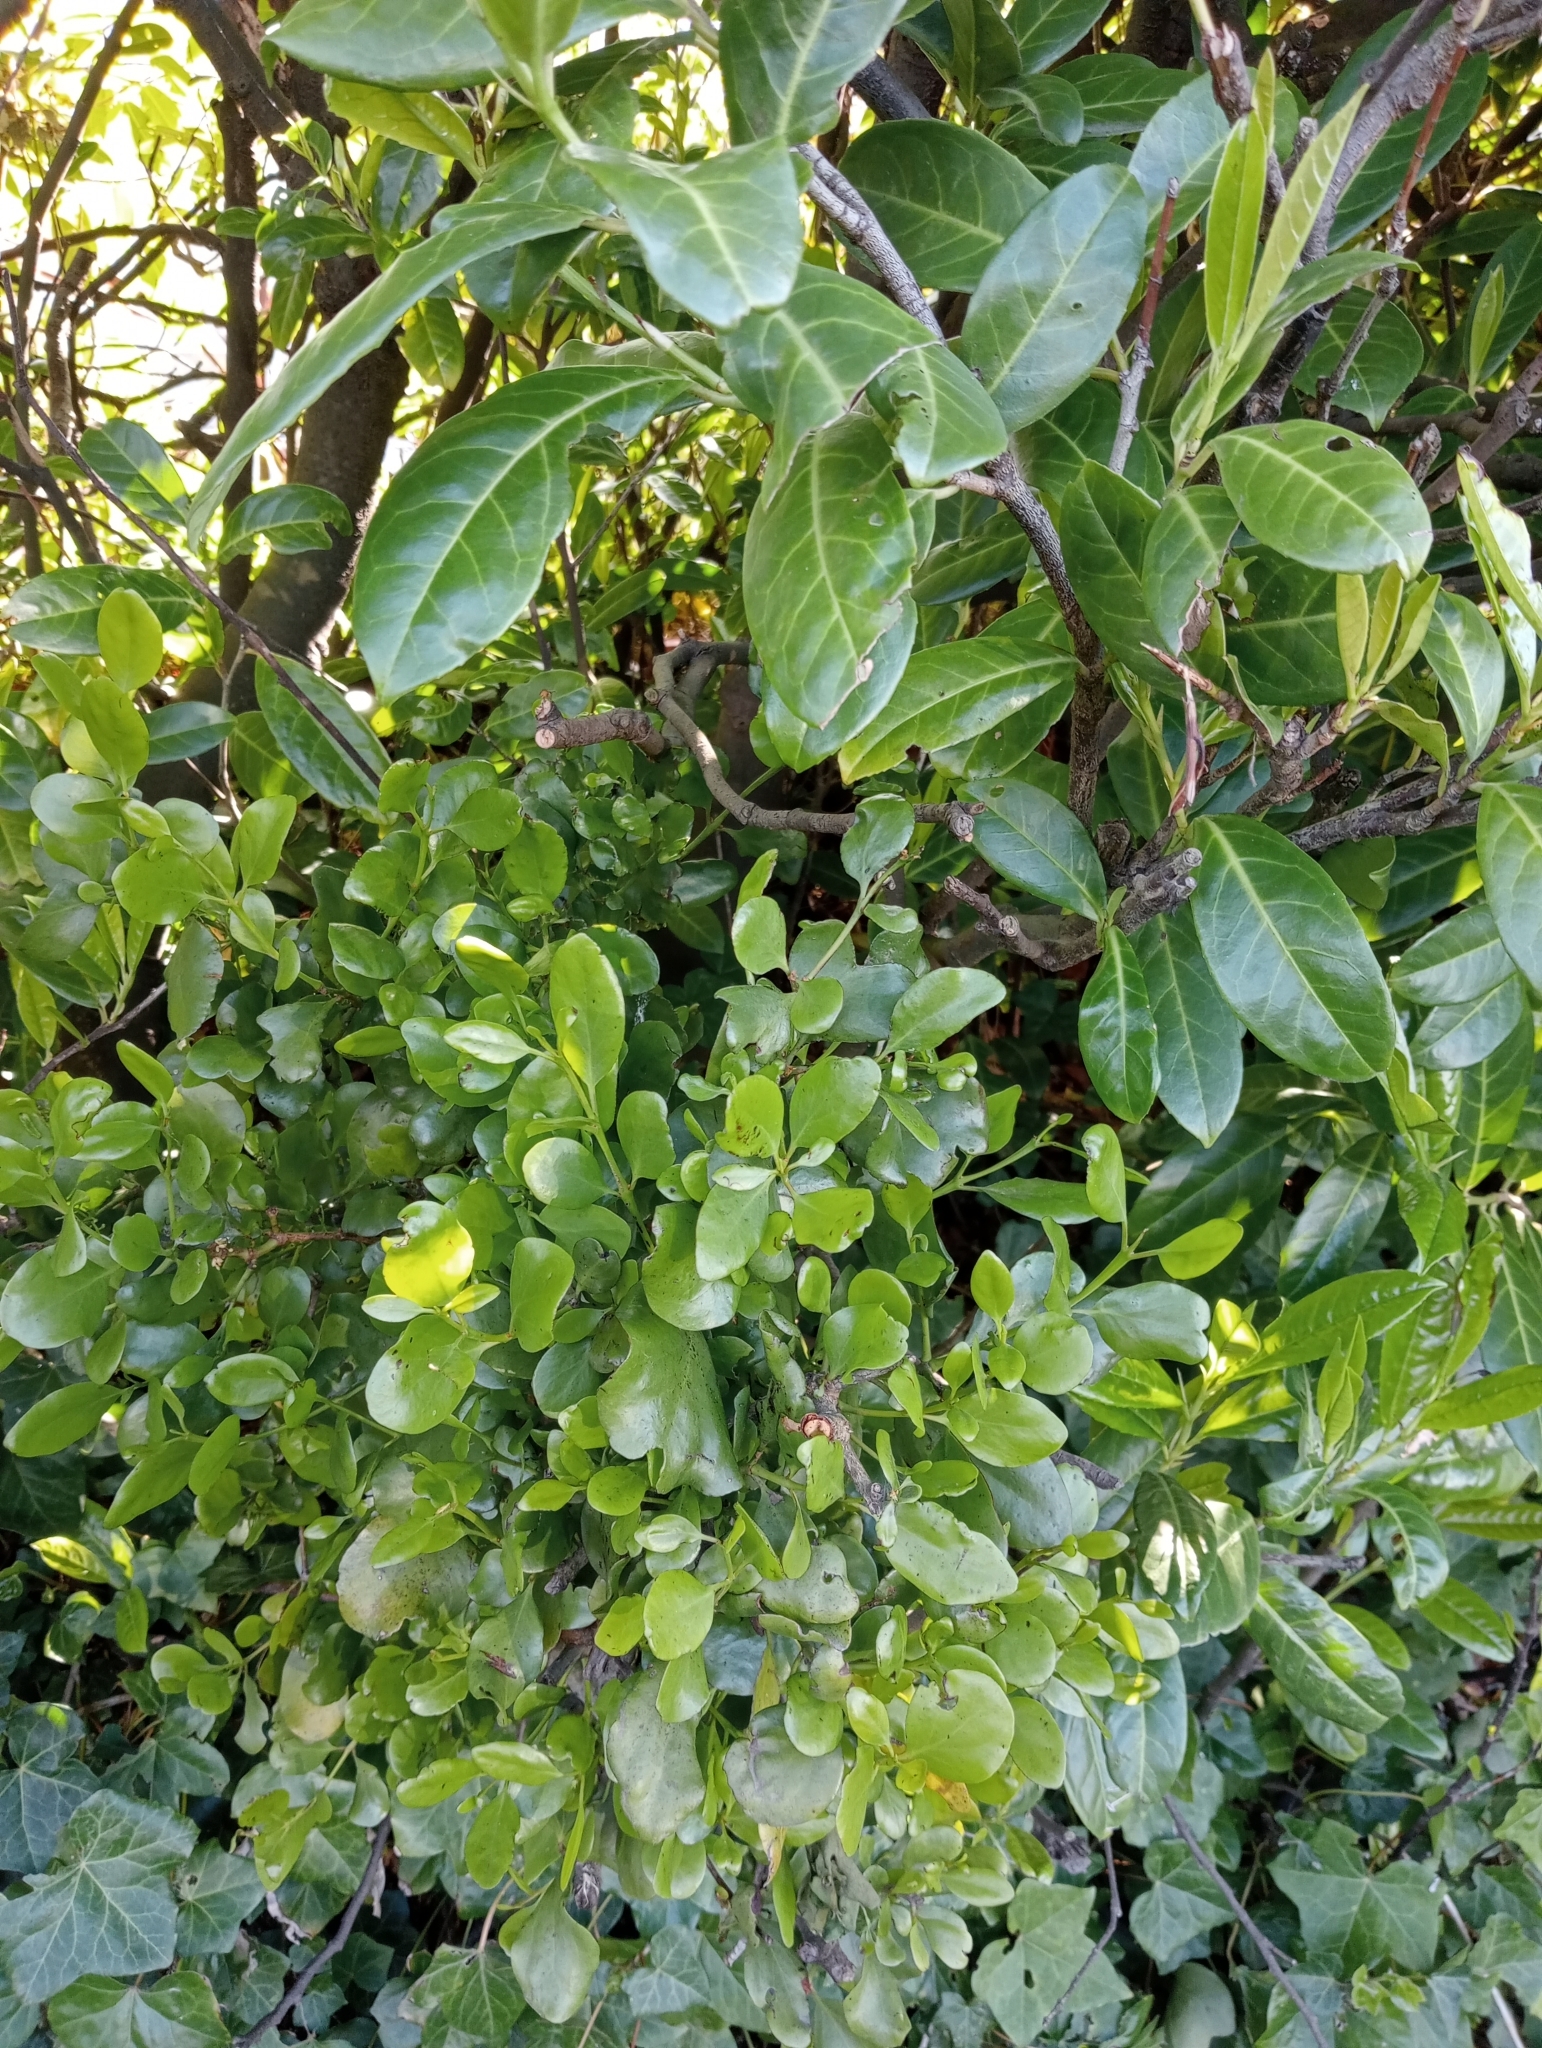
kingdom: Plantae
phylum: Tracheophyta
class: Magnoliopsida
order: Santalales
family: Loranthaceae
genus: Ileostylus
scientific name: Ileostylus micranthus
